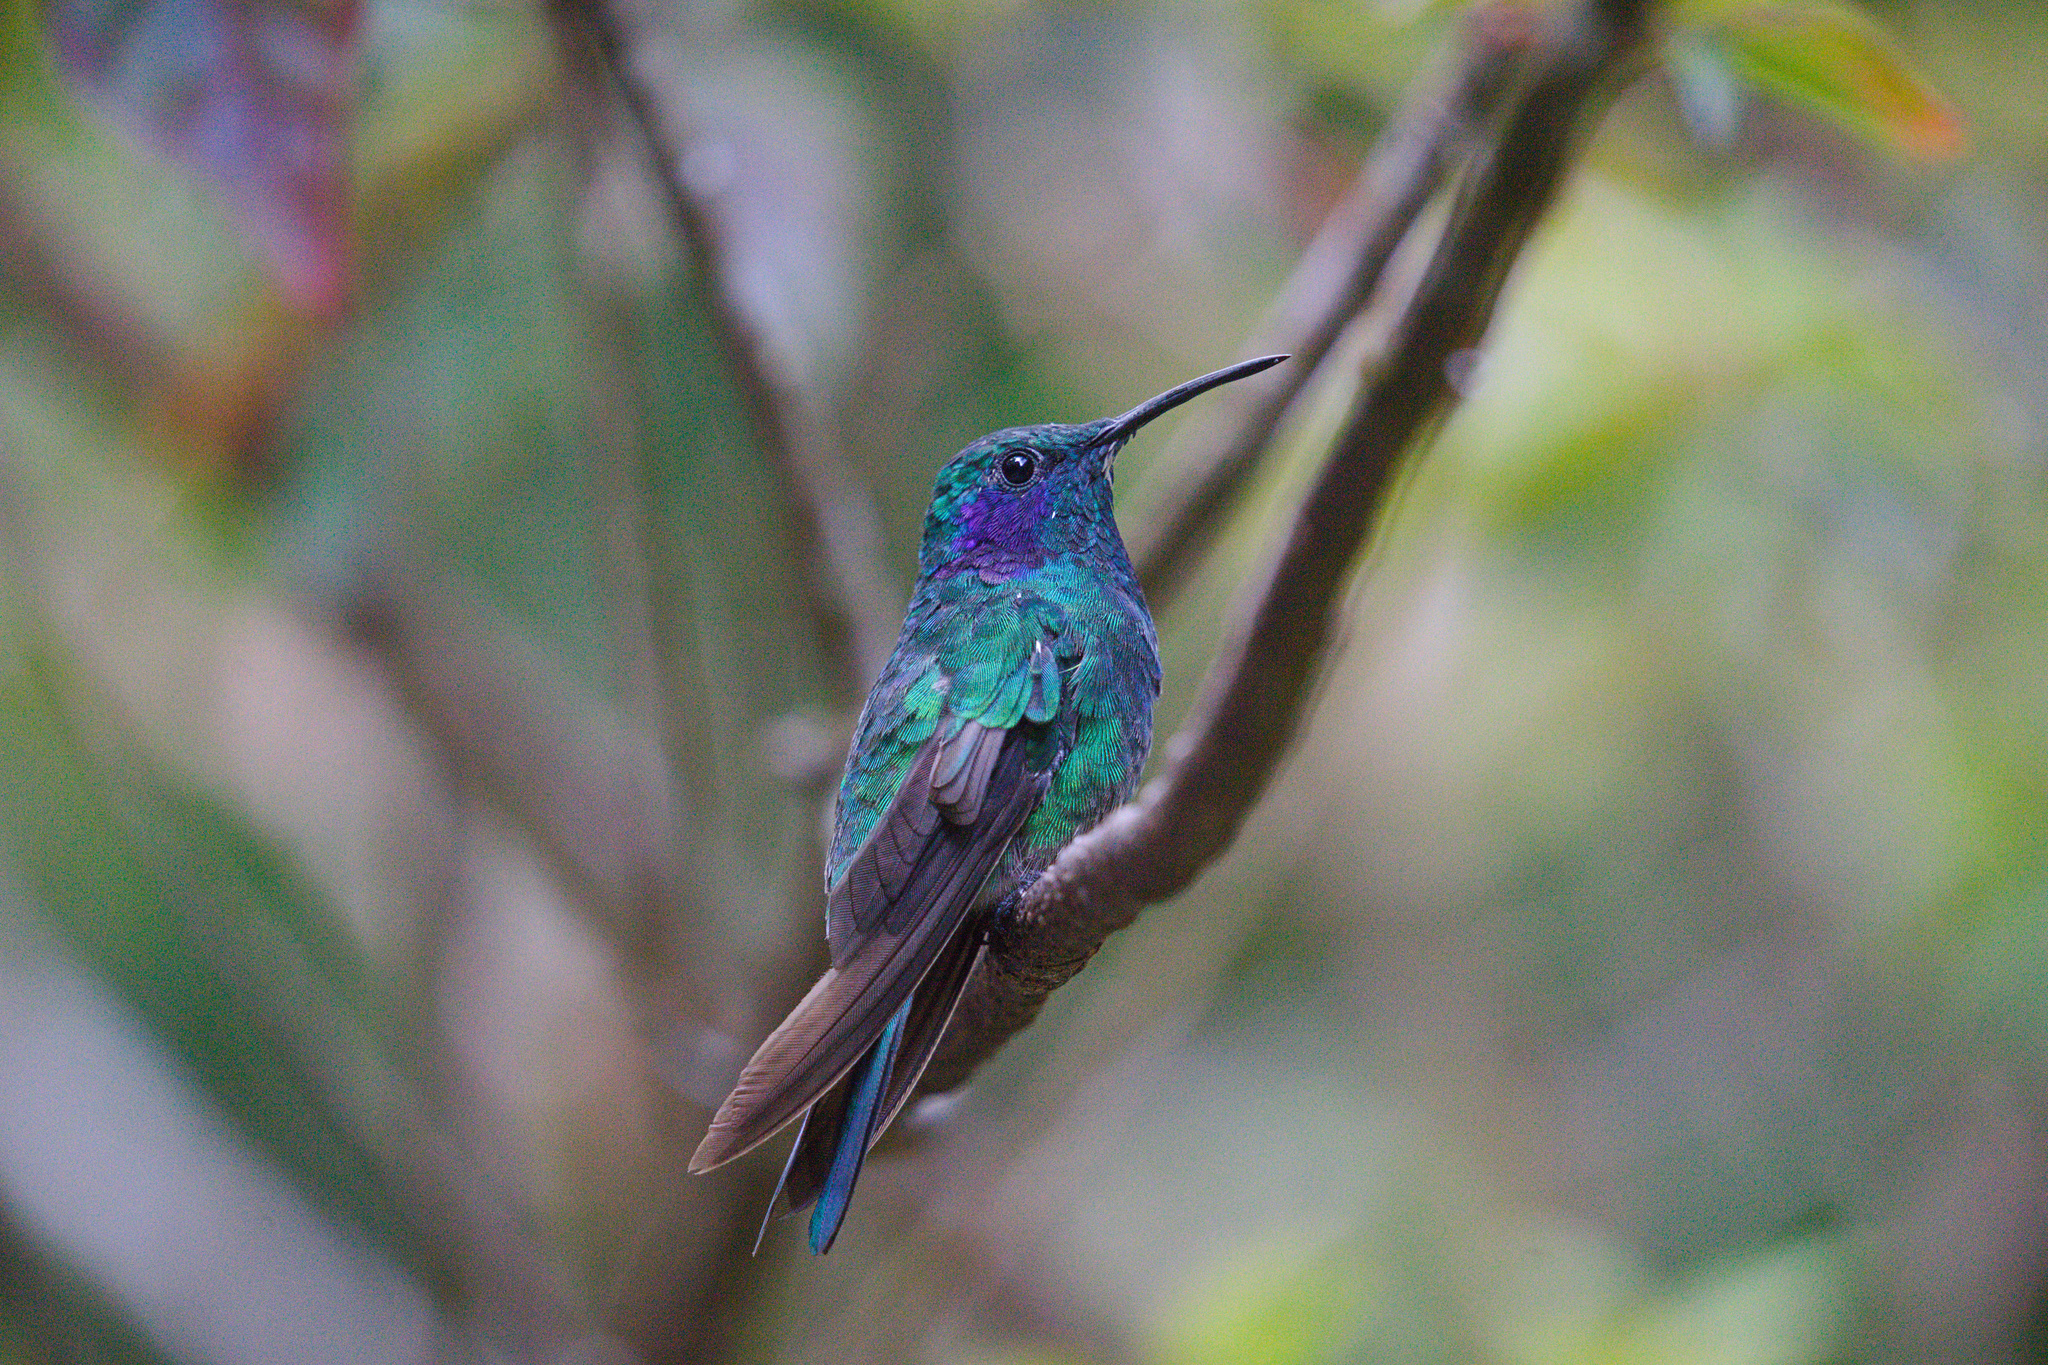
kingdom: Animalia
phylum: Chordata
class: Aves
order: Apodiformes
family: Trochilidae
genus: Colibri
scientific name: Colibri cyanotus
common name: Lesser violetear
